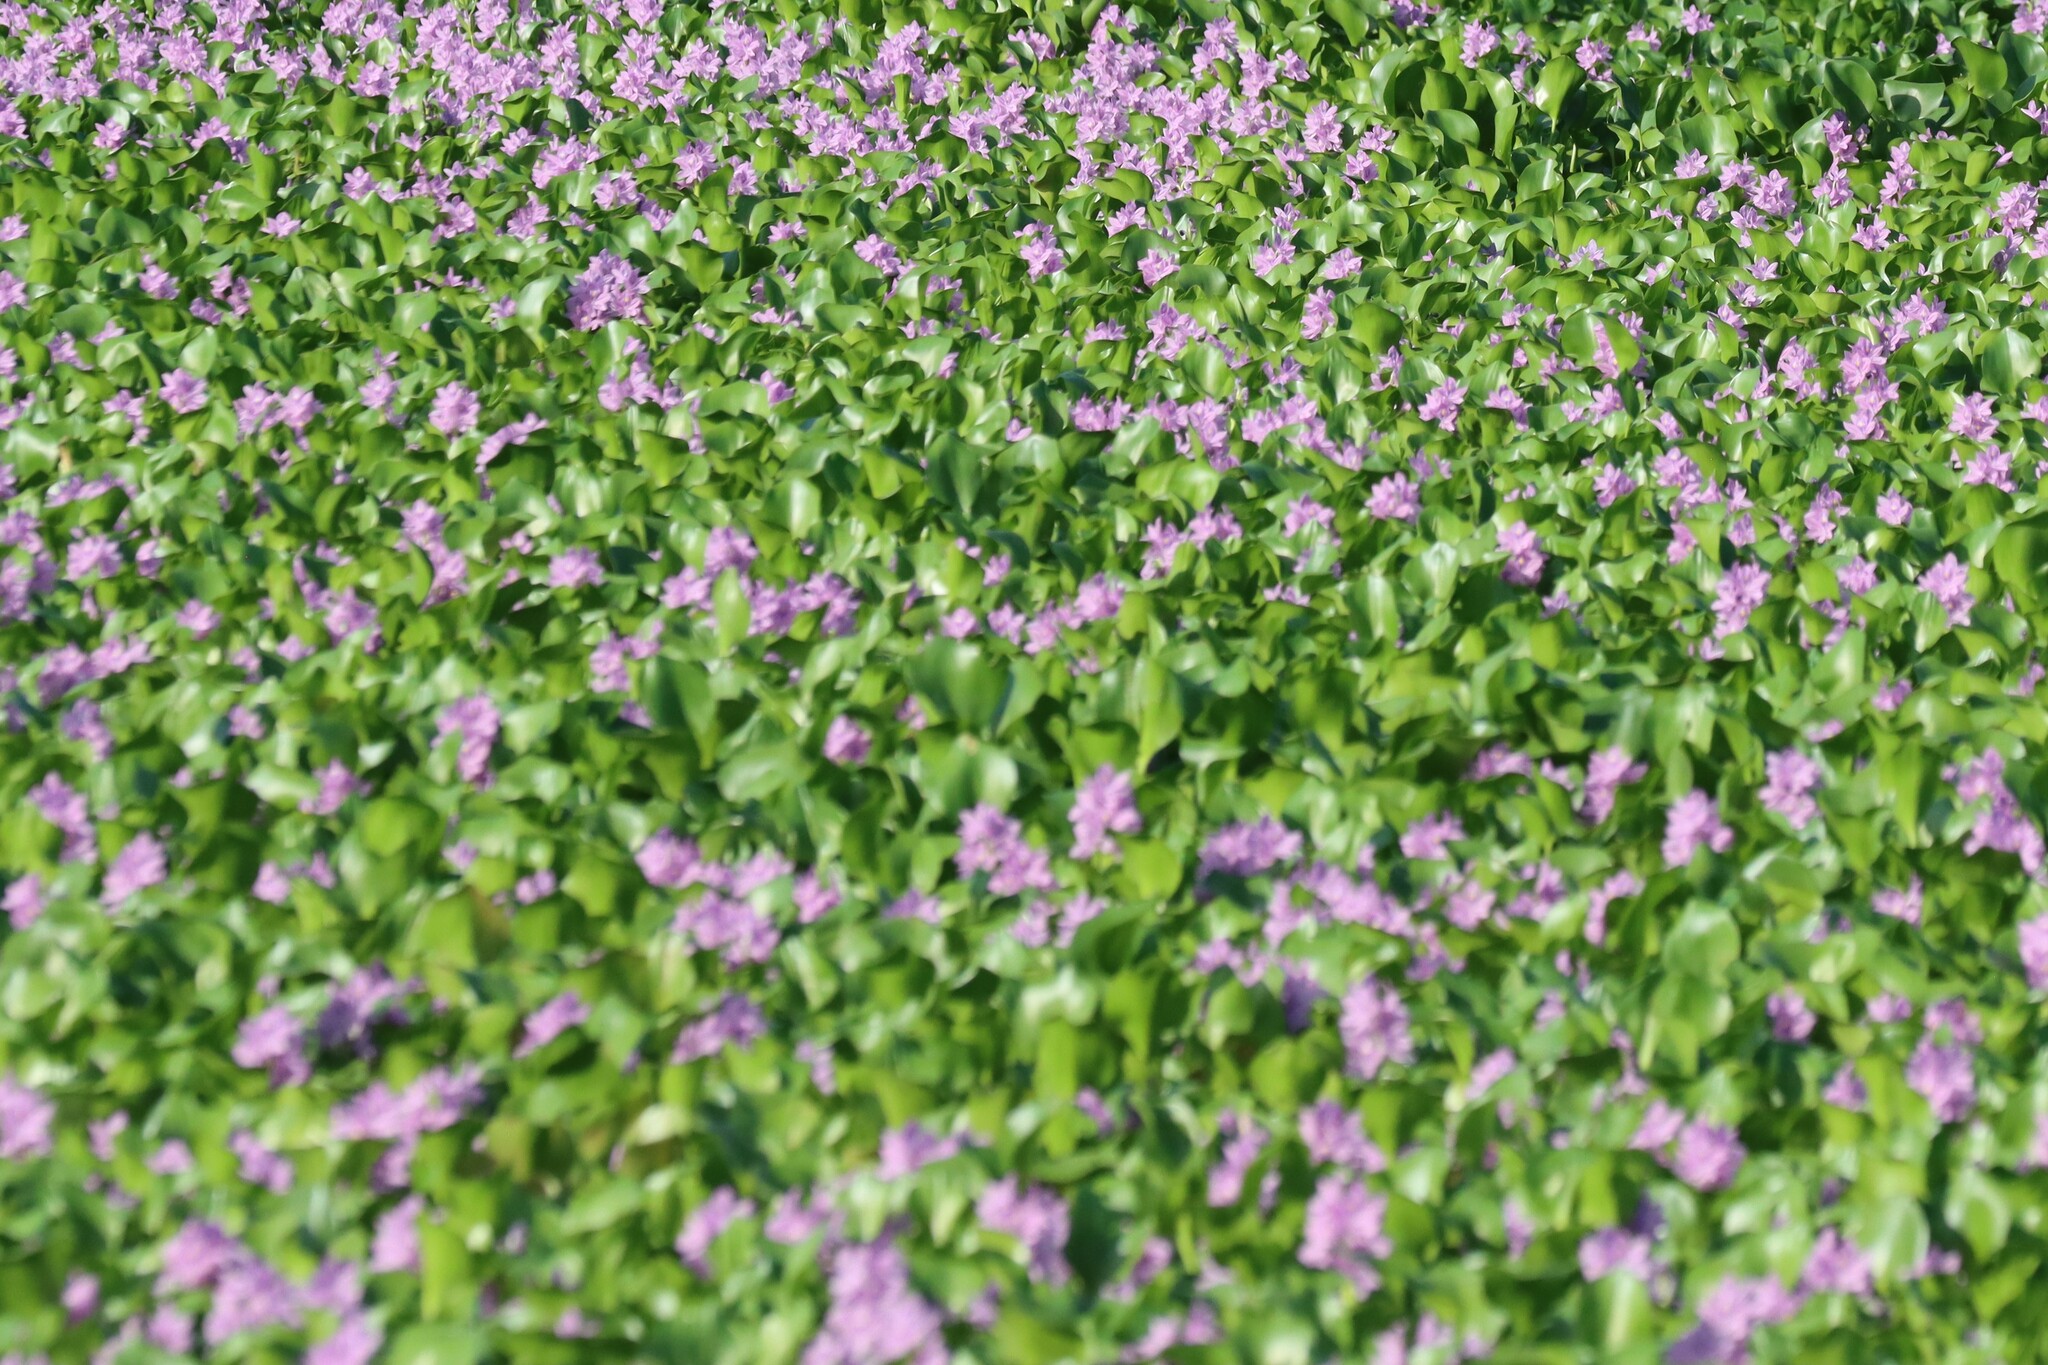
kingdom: Plantae
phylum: Tracheophyta
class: Liliopsida
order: Commelinales
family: Pontederiaceae
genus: Pontederia
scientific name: Pontederia crassipes
